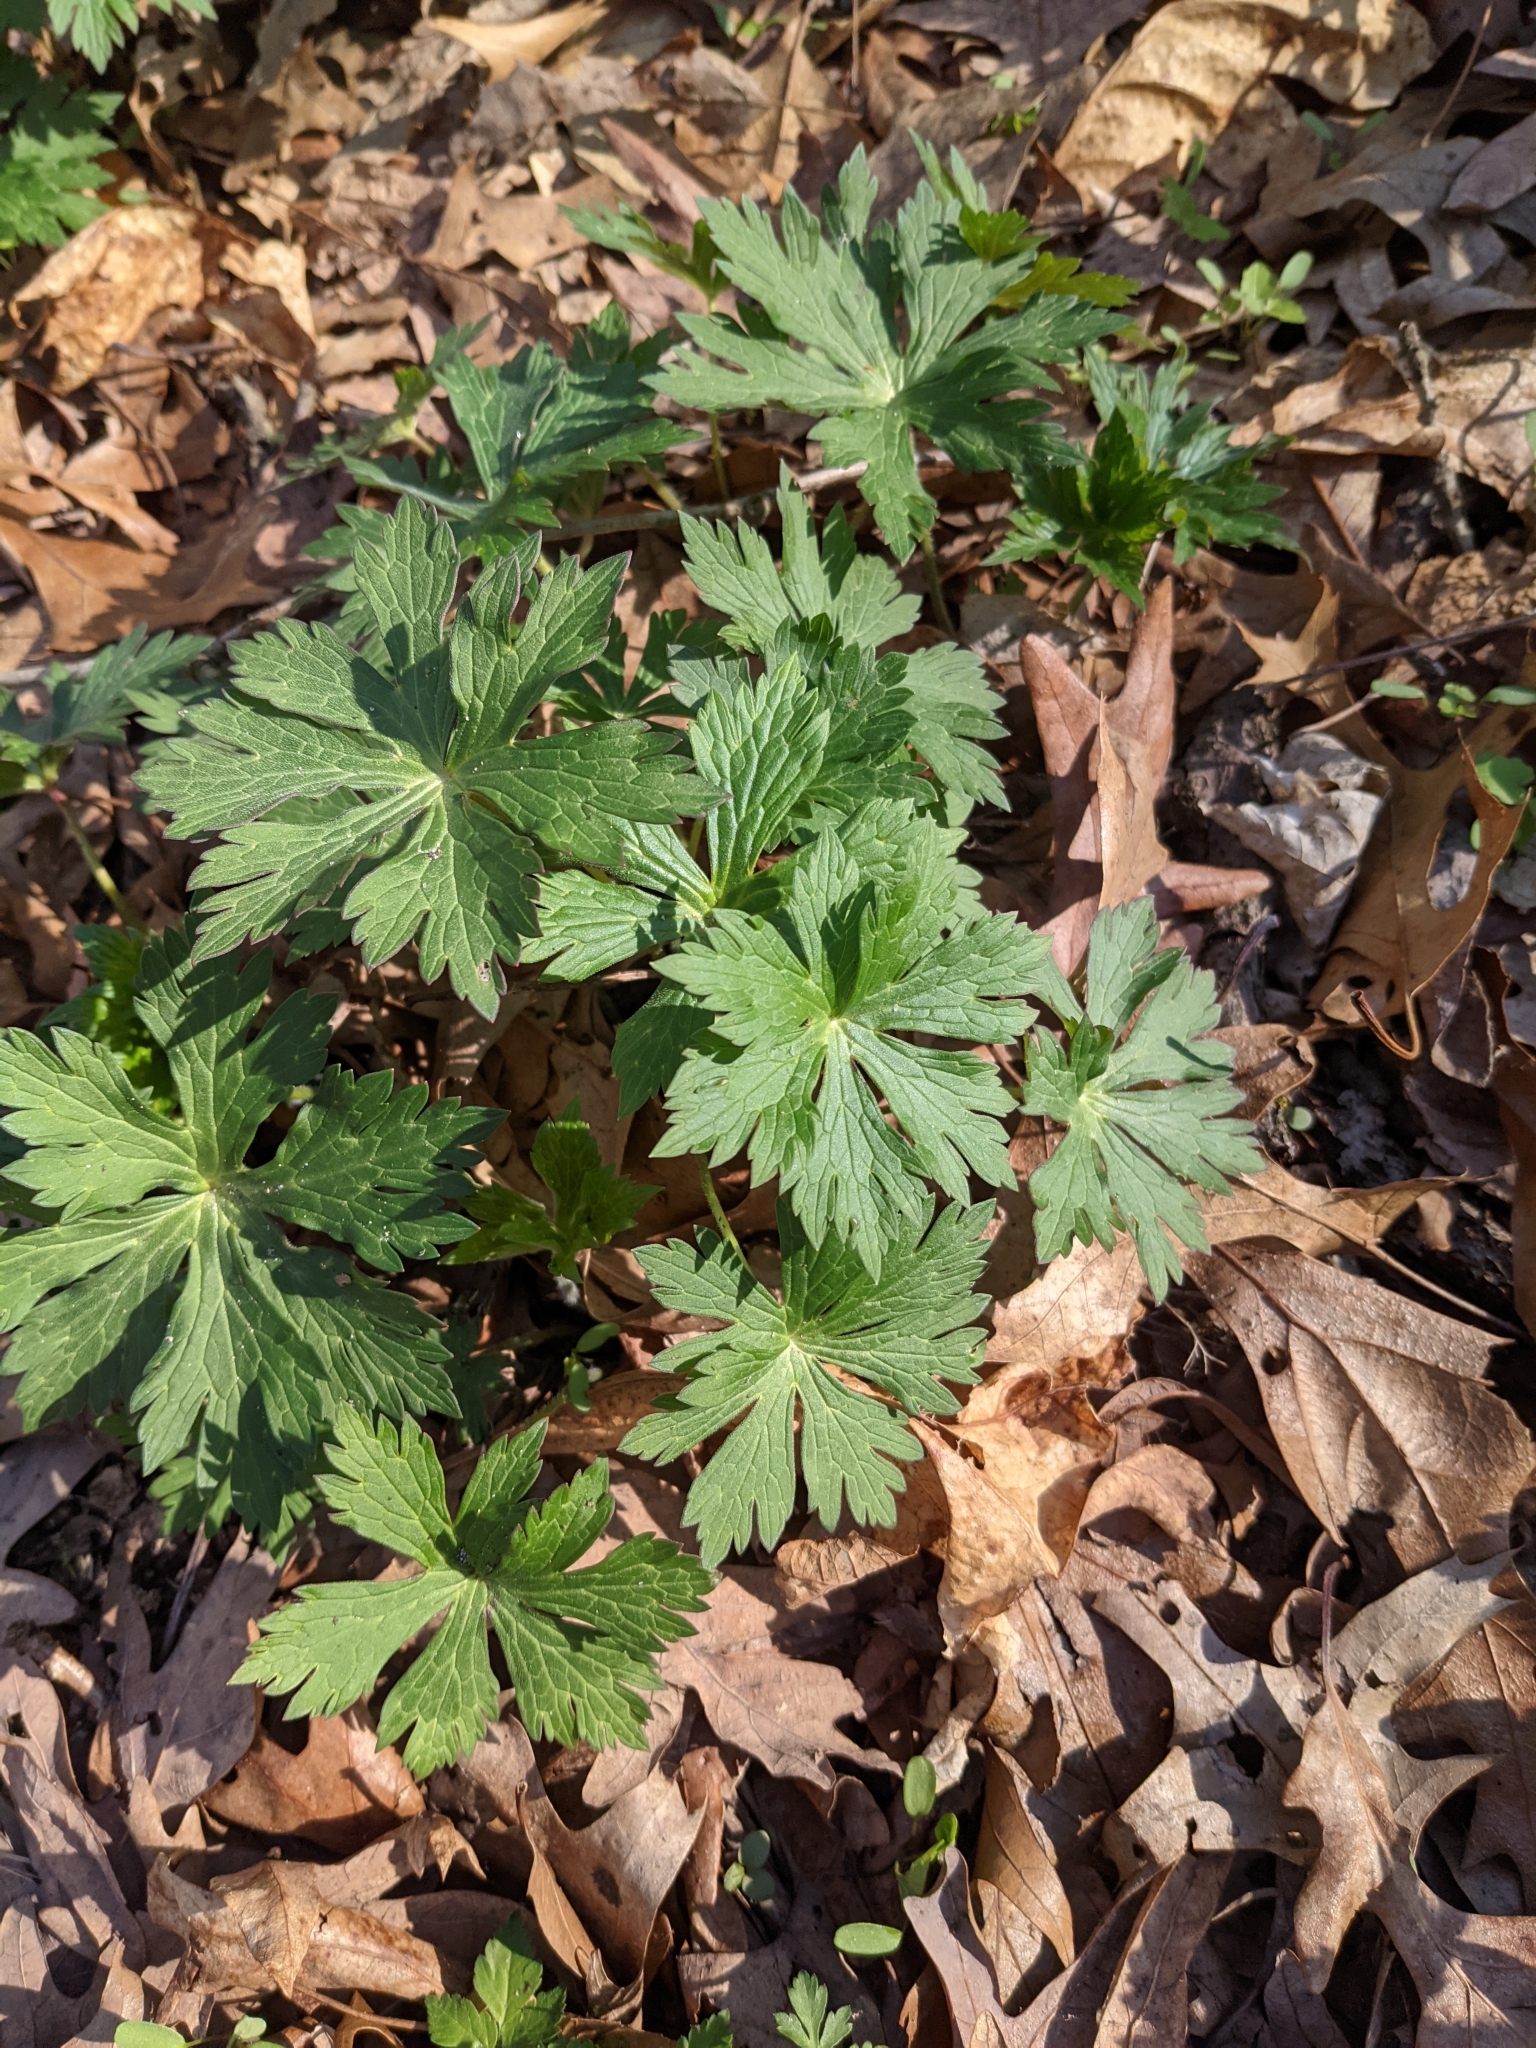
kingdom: Plantae
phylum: Tracheophyta
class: Magnoliopsida
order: Geraniales
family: Geraniaceae
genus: Geranium
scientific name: Geranium maculatum
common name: Spotted geranium
